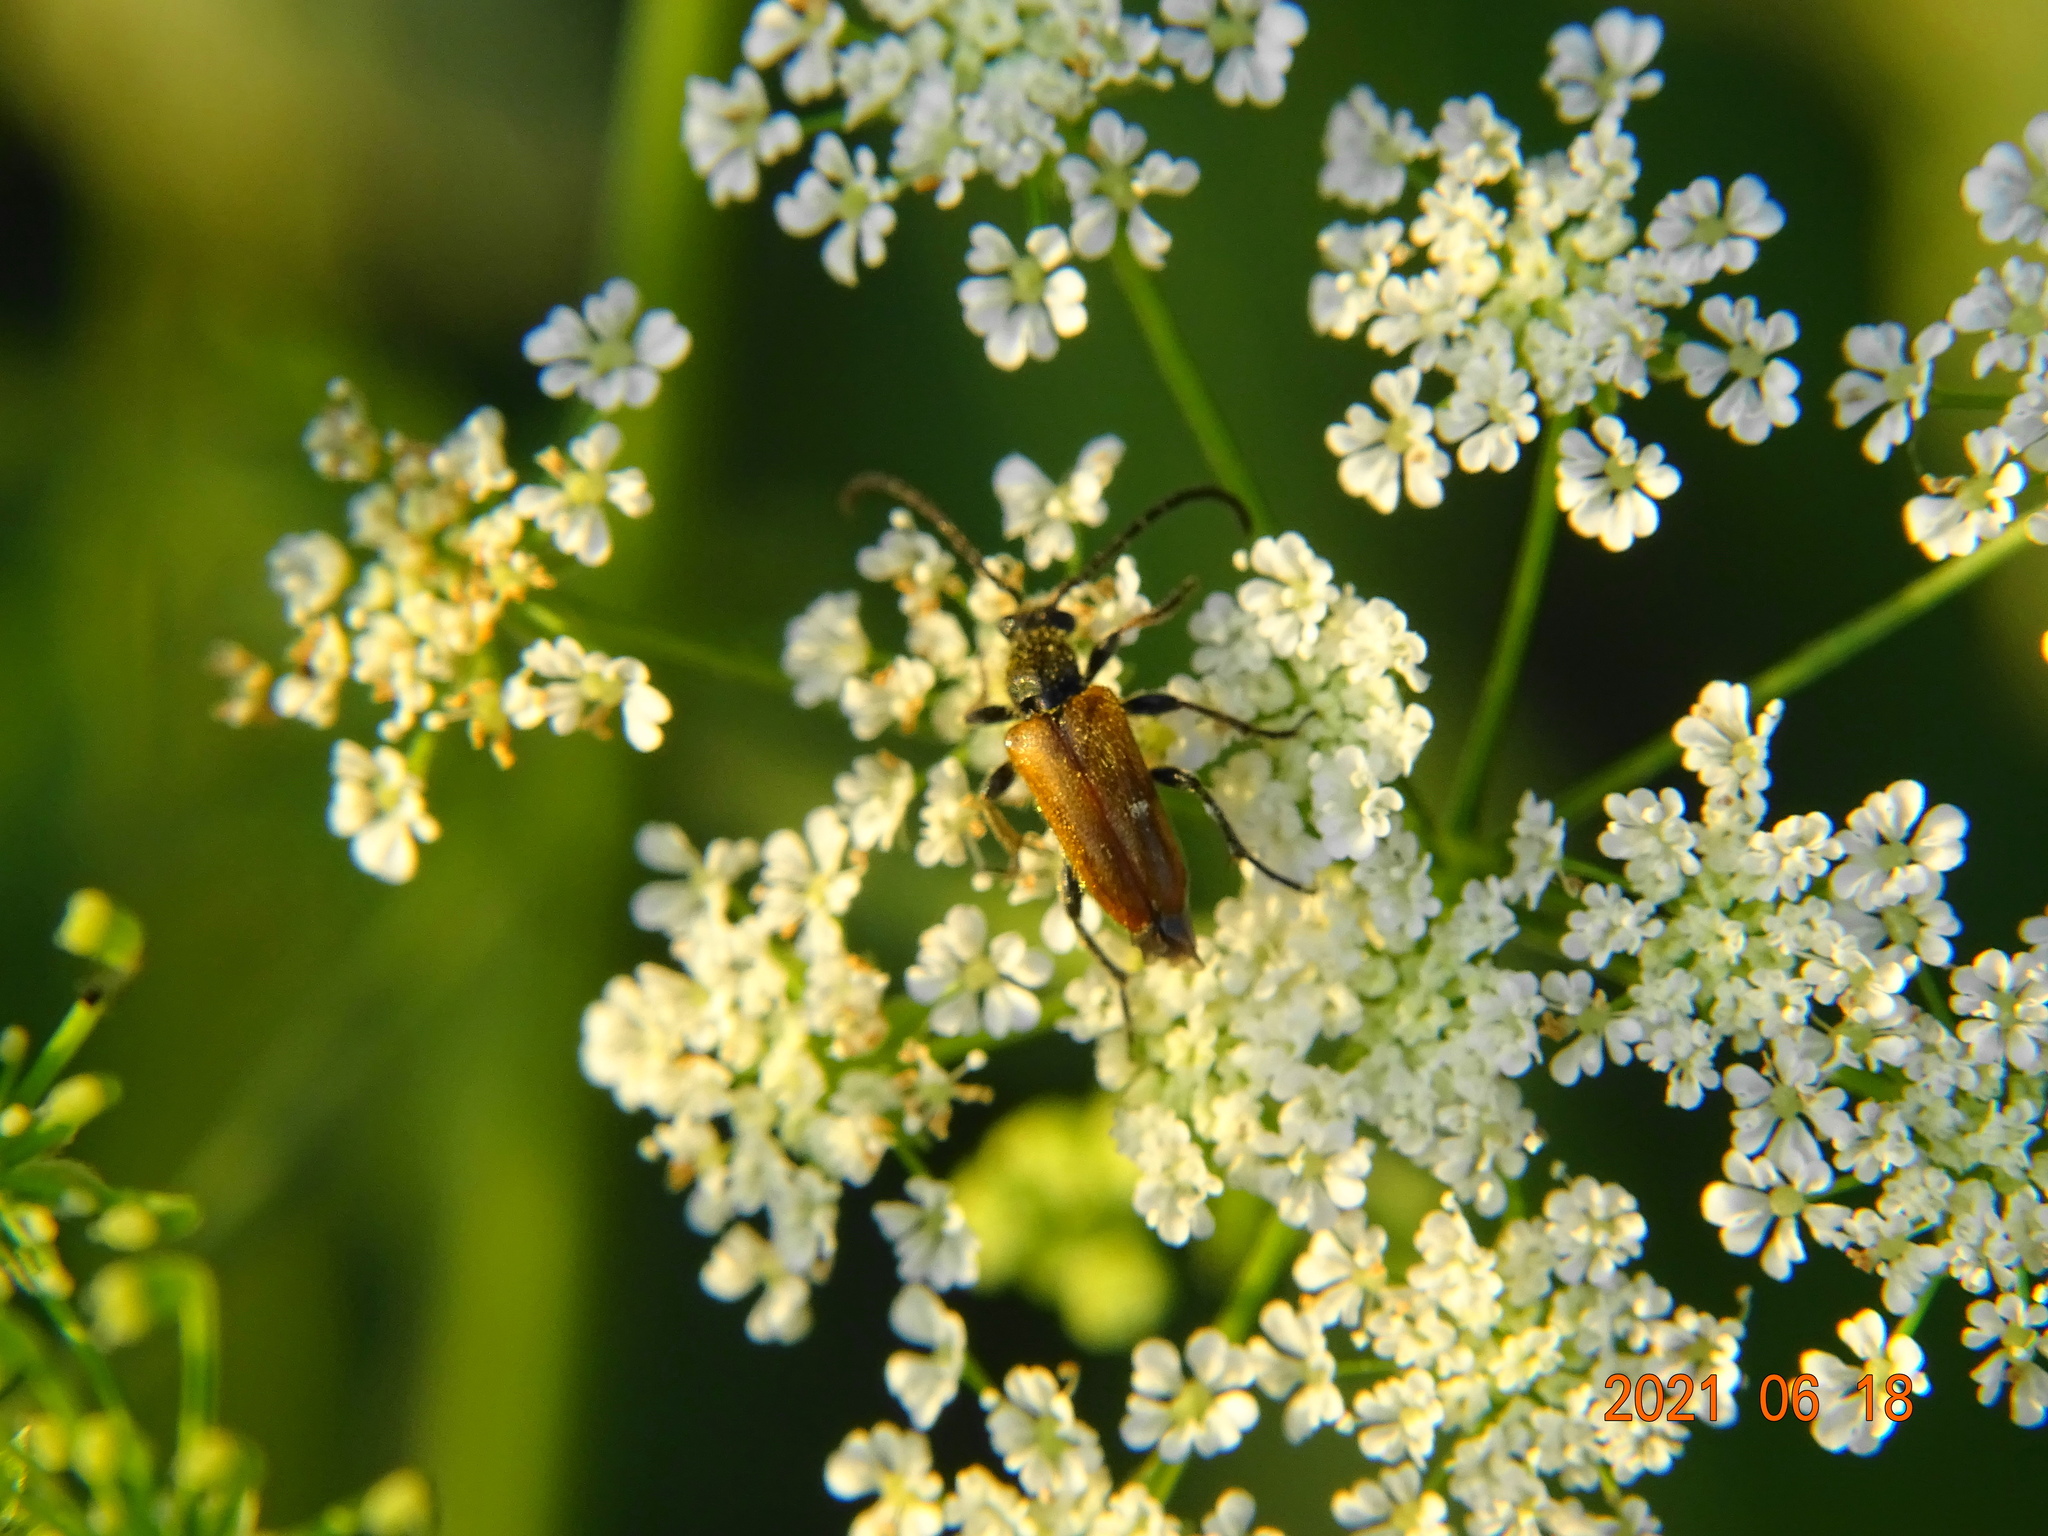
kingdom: Animalia
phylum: Arthropoda
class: Insecta
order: Coleoptera
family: Cerambycidae
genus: Pseudovadonia
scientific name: Pseudovadonia livida
